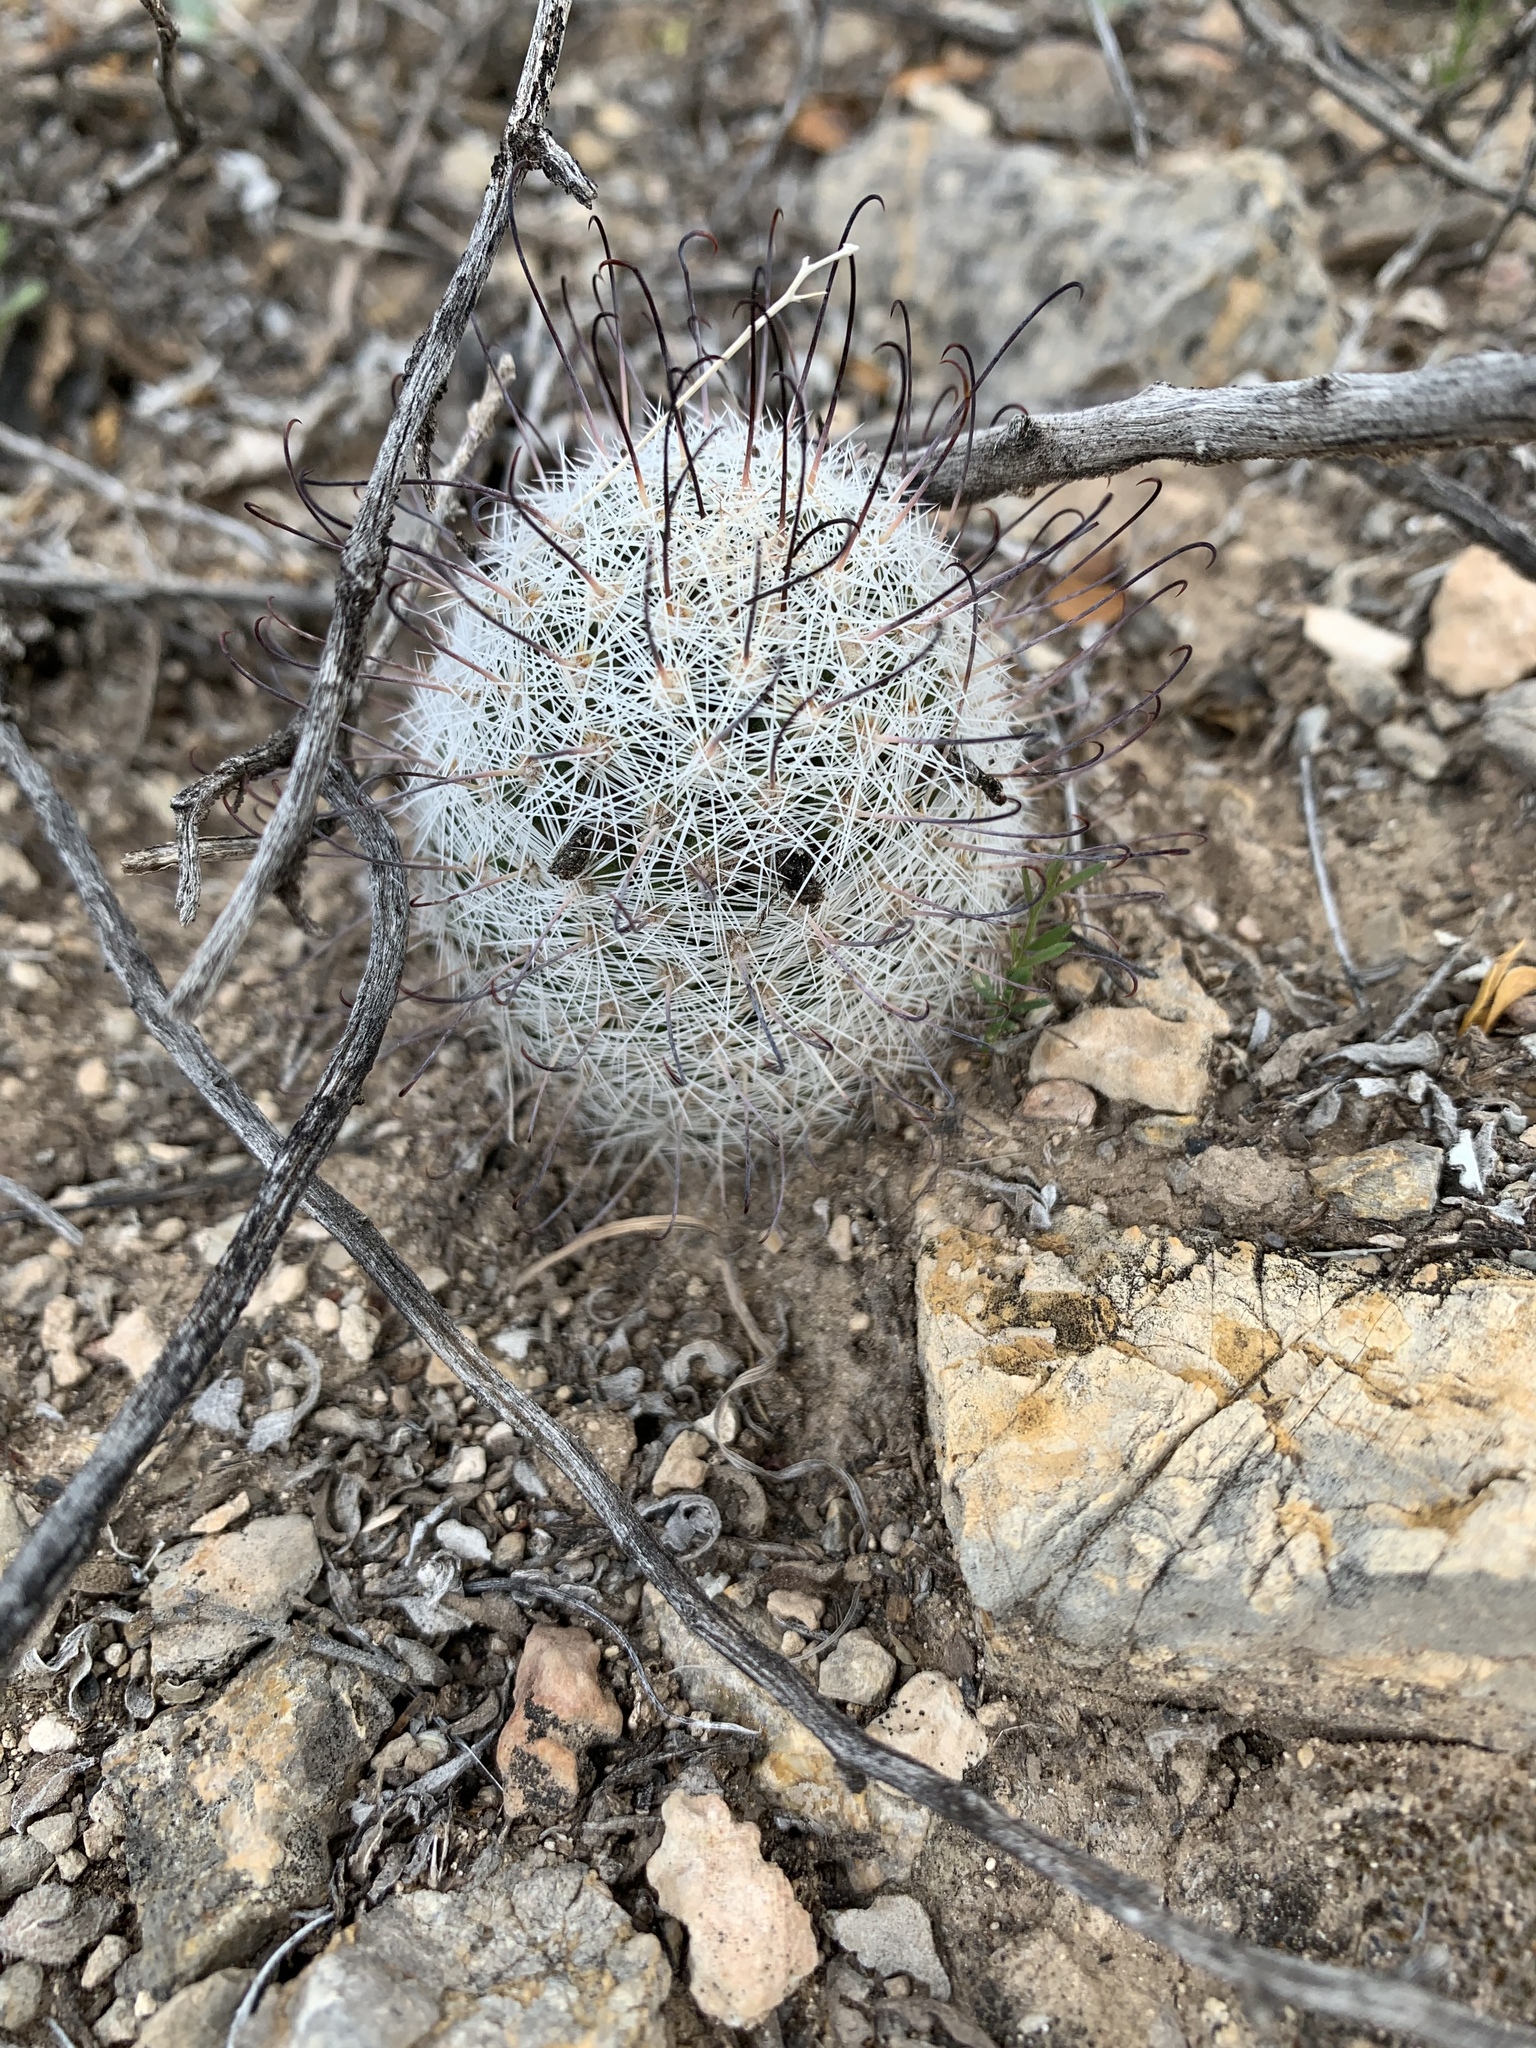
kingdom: Plantae
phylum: Tracheophyta
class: Magnoliopsida
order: Caryophyllales
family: Cactaceae
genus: Cochemiea
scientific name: Cochemiea grahamii
